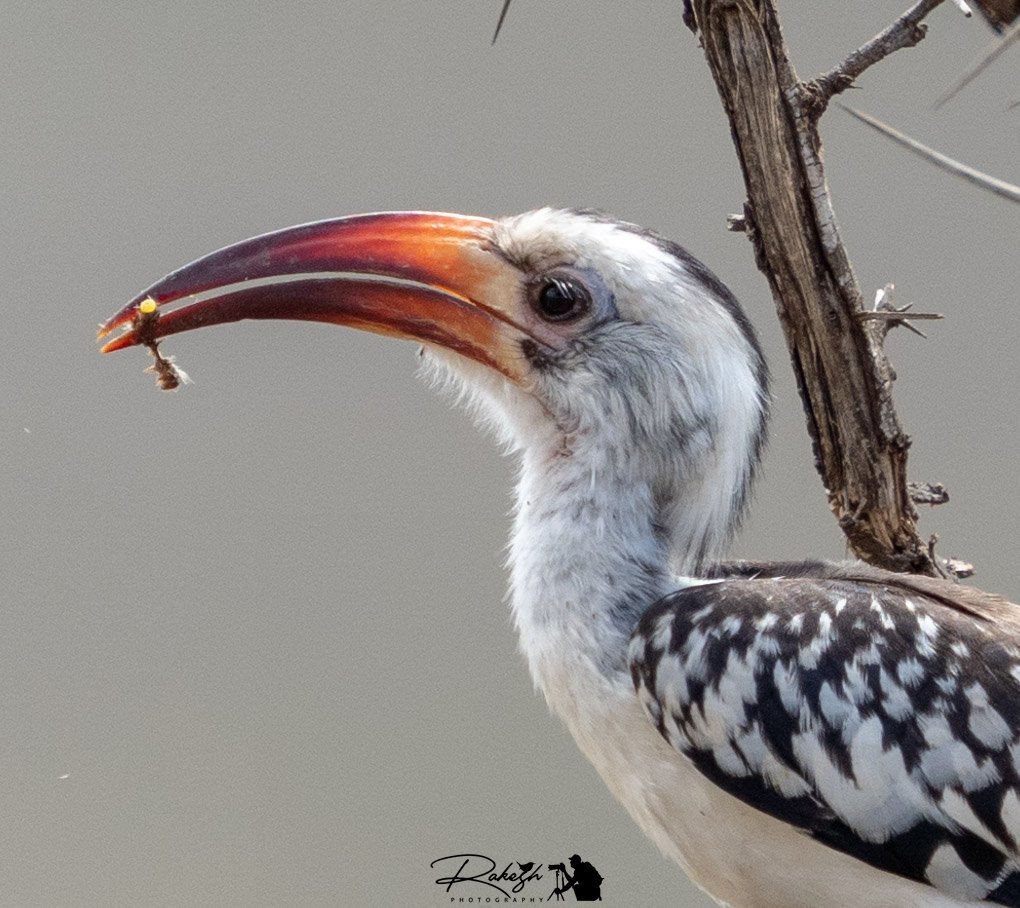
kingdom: Animalia
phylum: Chordata
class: Aves
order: Bucerotiformes
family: Bucerotidae
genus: Tockus
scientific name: Tockus erythrorhynchus
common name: Northern red-billed hornbill
